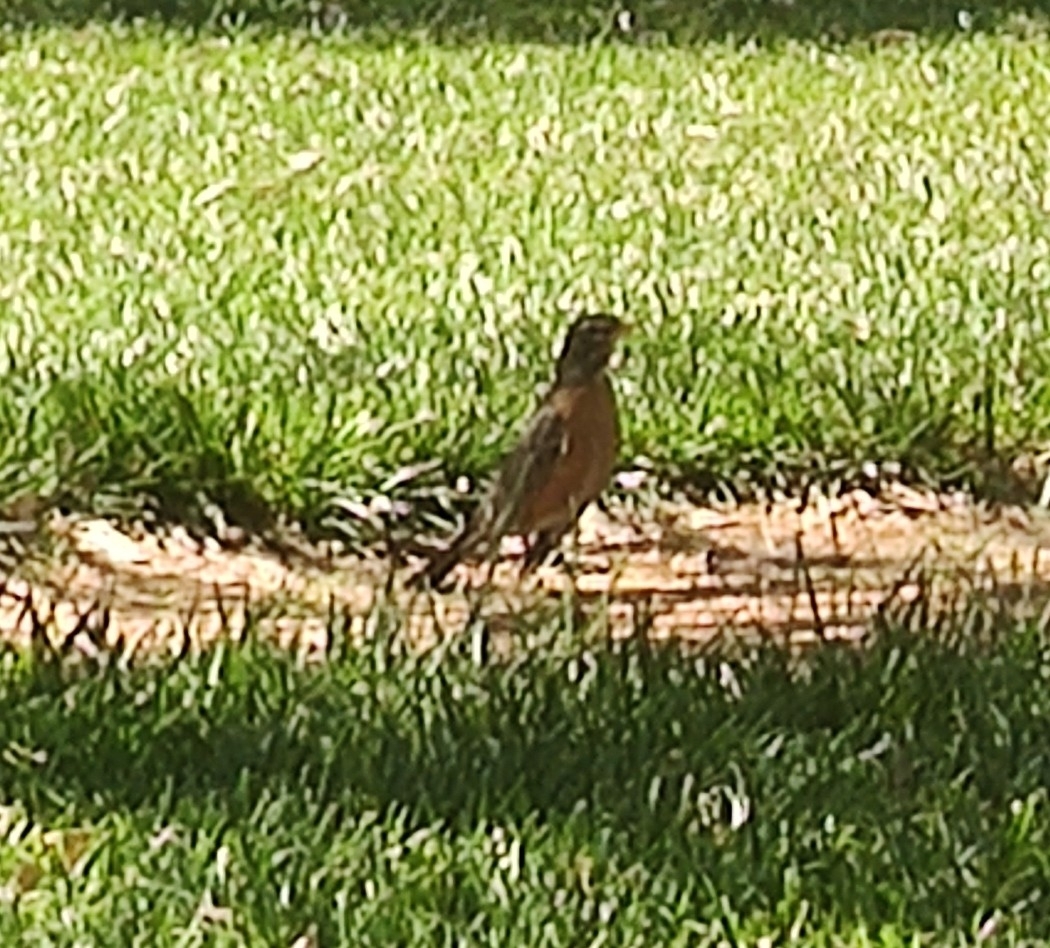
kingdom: Animalia
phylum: Chordata
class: Aves
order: Passeriformes
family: Turdidae
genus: Turdus
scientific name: Turdus migratorius
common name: American robin
